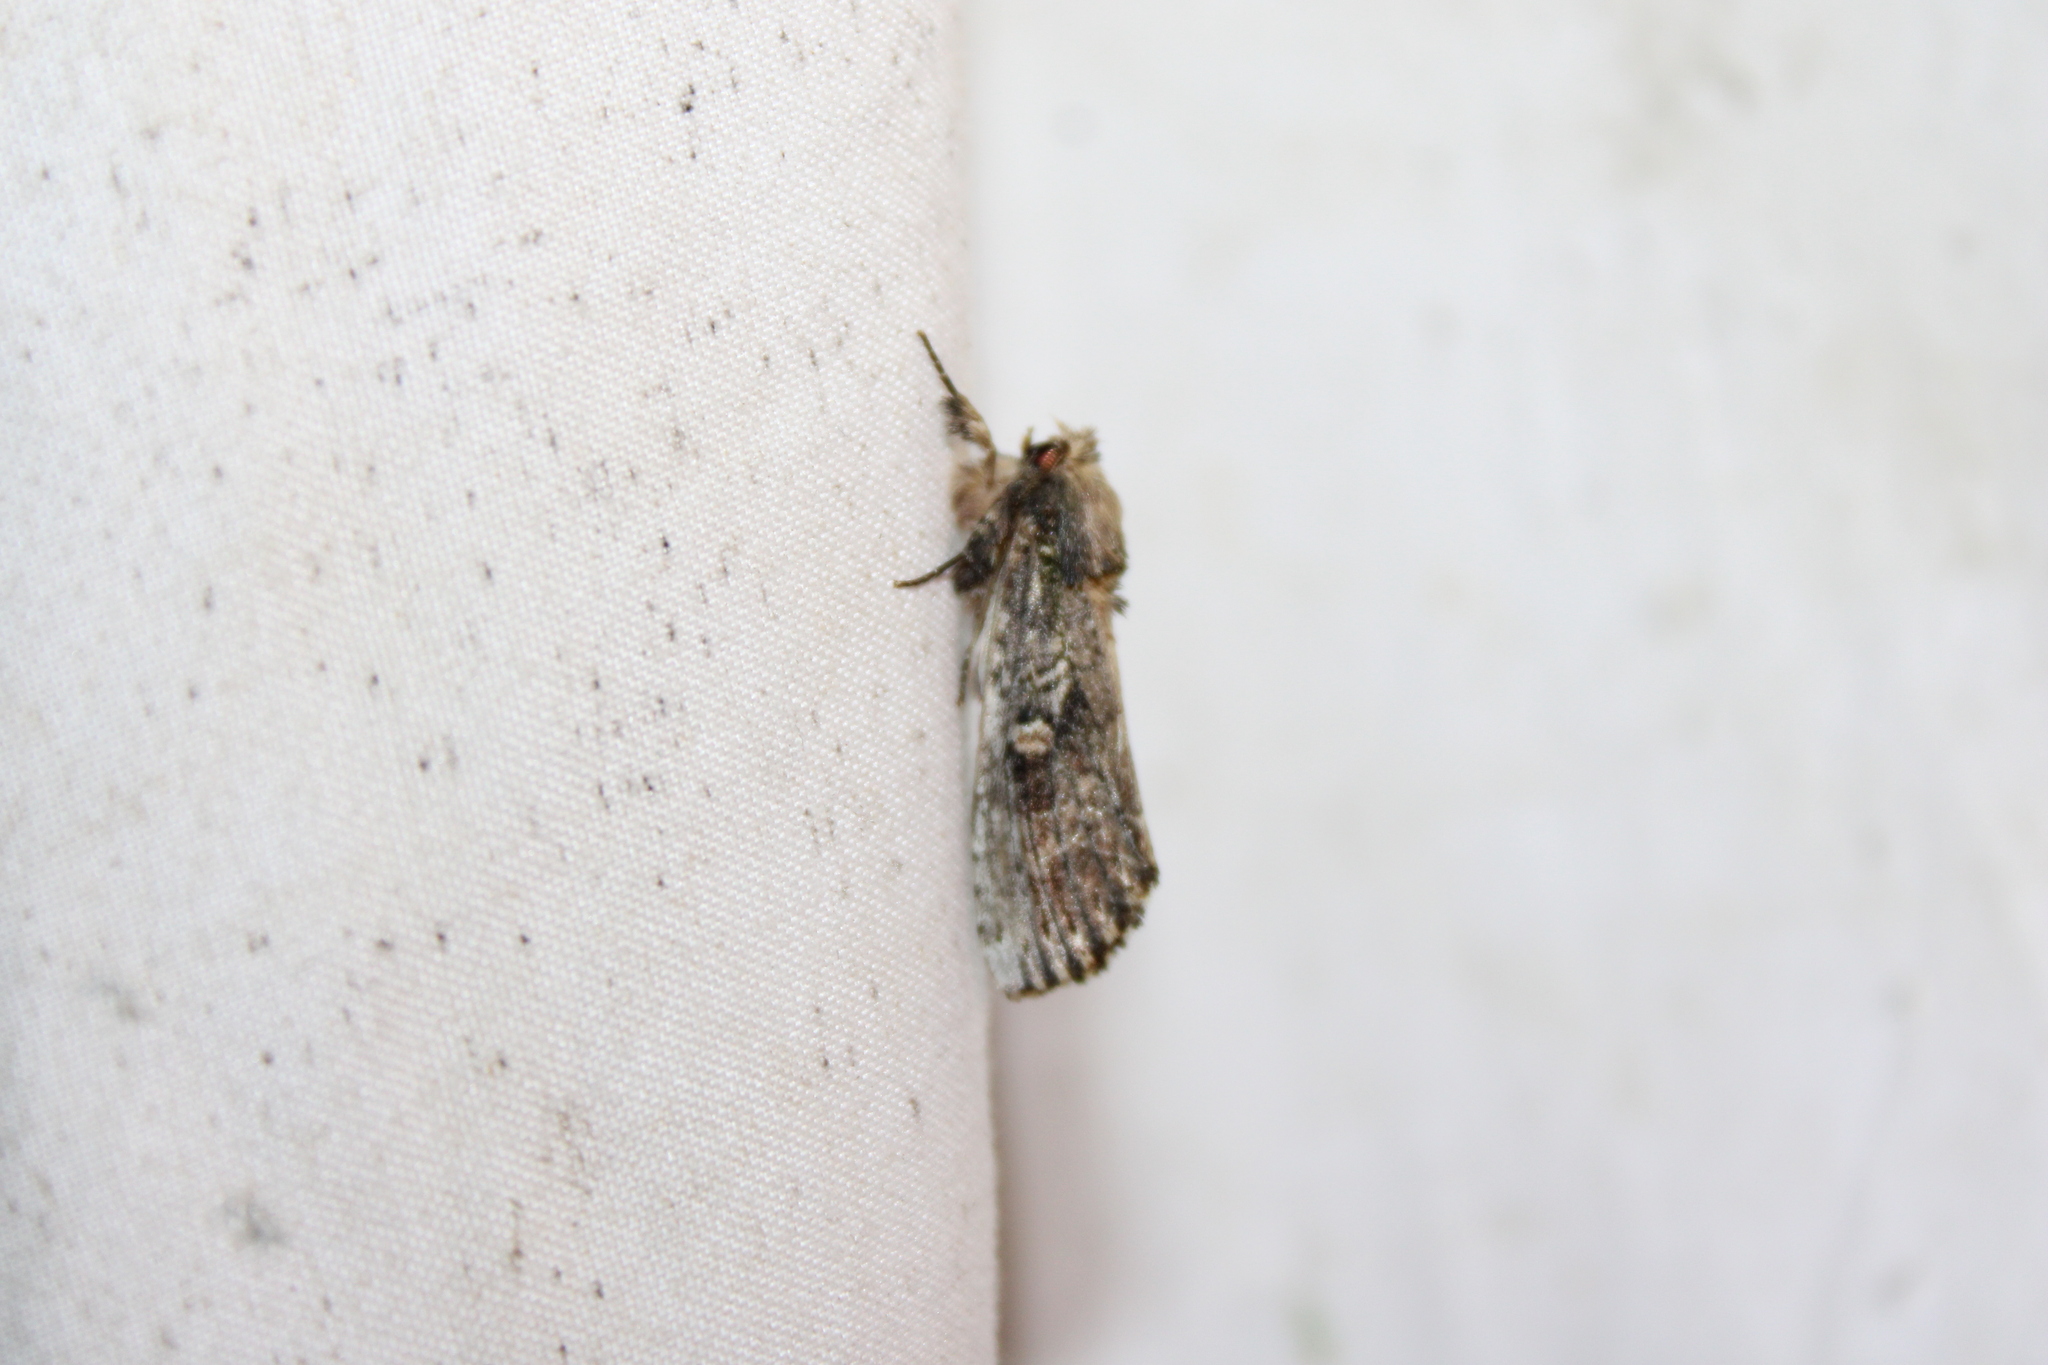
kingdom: Animalia
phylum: Arthropoda
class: Insecta
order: Lepidoptera
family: Notodontidae
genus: Schizura
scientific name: Schizura ipomaeae
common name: Morning-glory prominent
